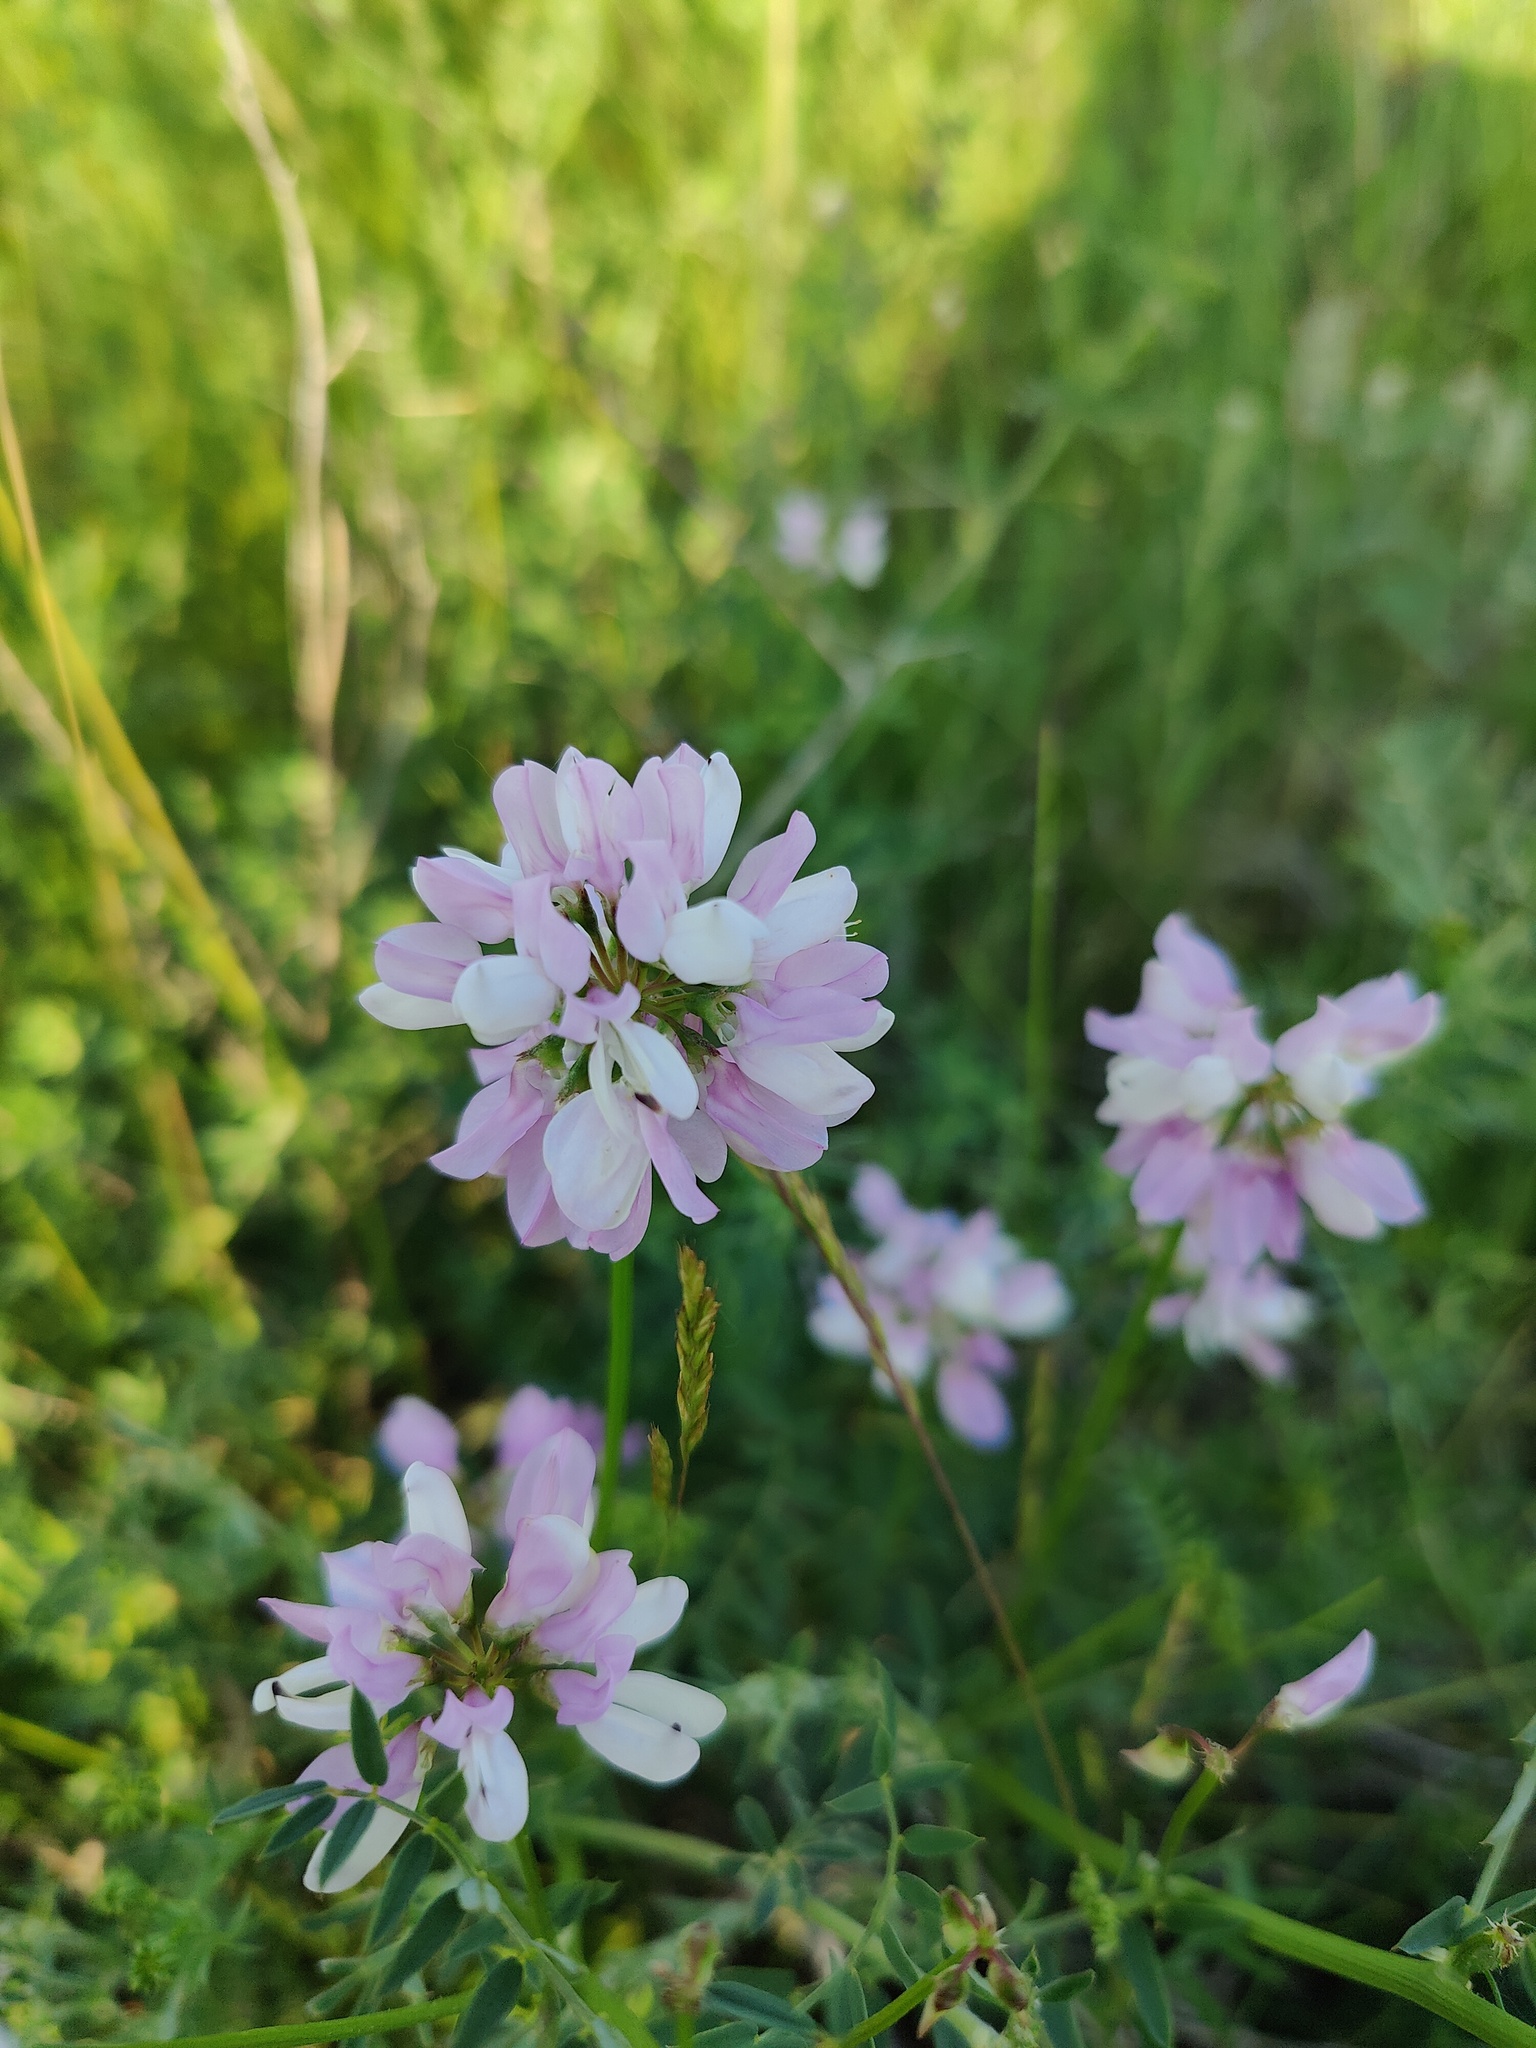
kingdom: Plantae
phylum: Tracheophyta
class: Magnoliopsida
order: Fabales
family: Fabaceae
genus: Coronilla
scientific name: Coronilla varia
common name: Crownvetch
